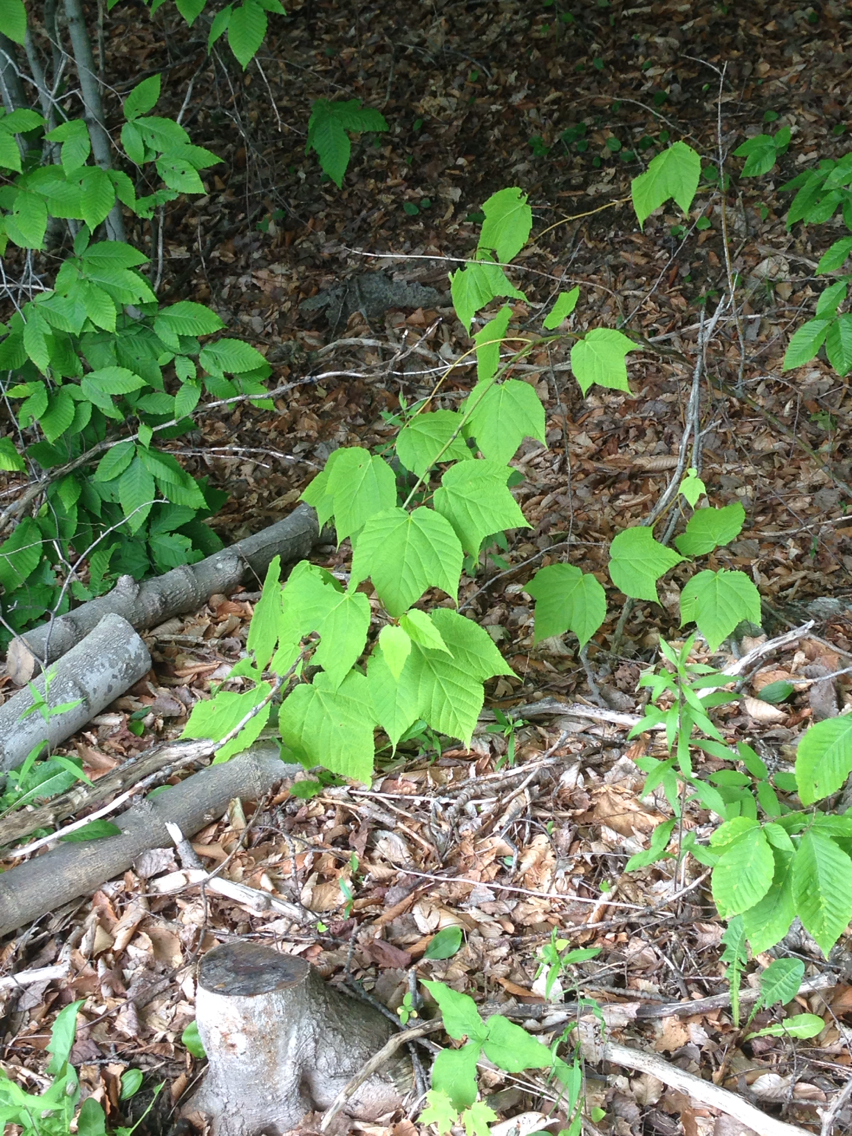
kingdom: Plantae
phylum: Tracheophyta
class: Magnoliopsida
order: Sapindales
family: Sapindaceae
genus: Acer
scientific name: Acer pensylvanicum
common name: Moosewood
